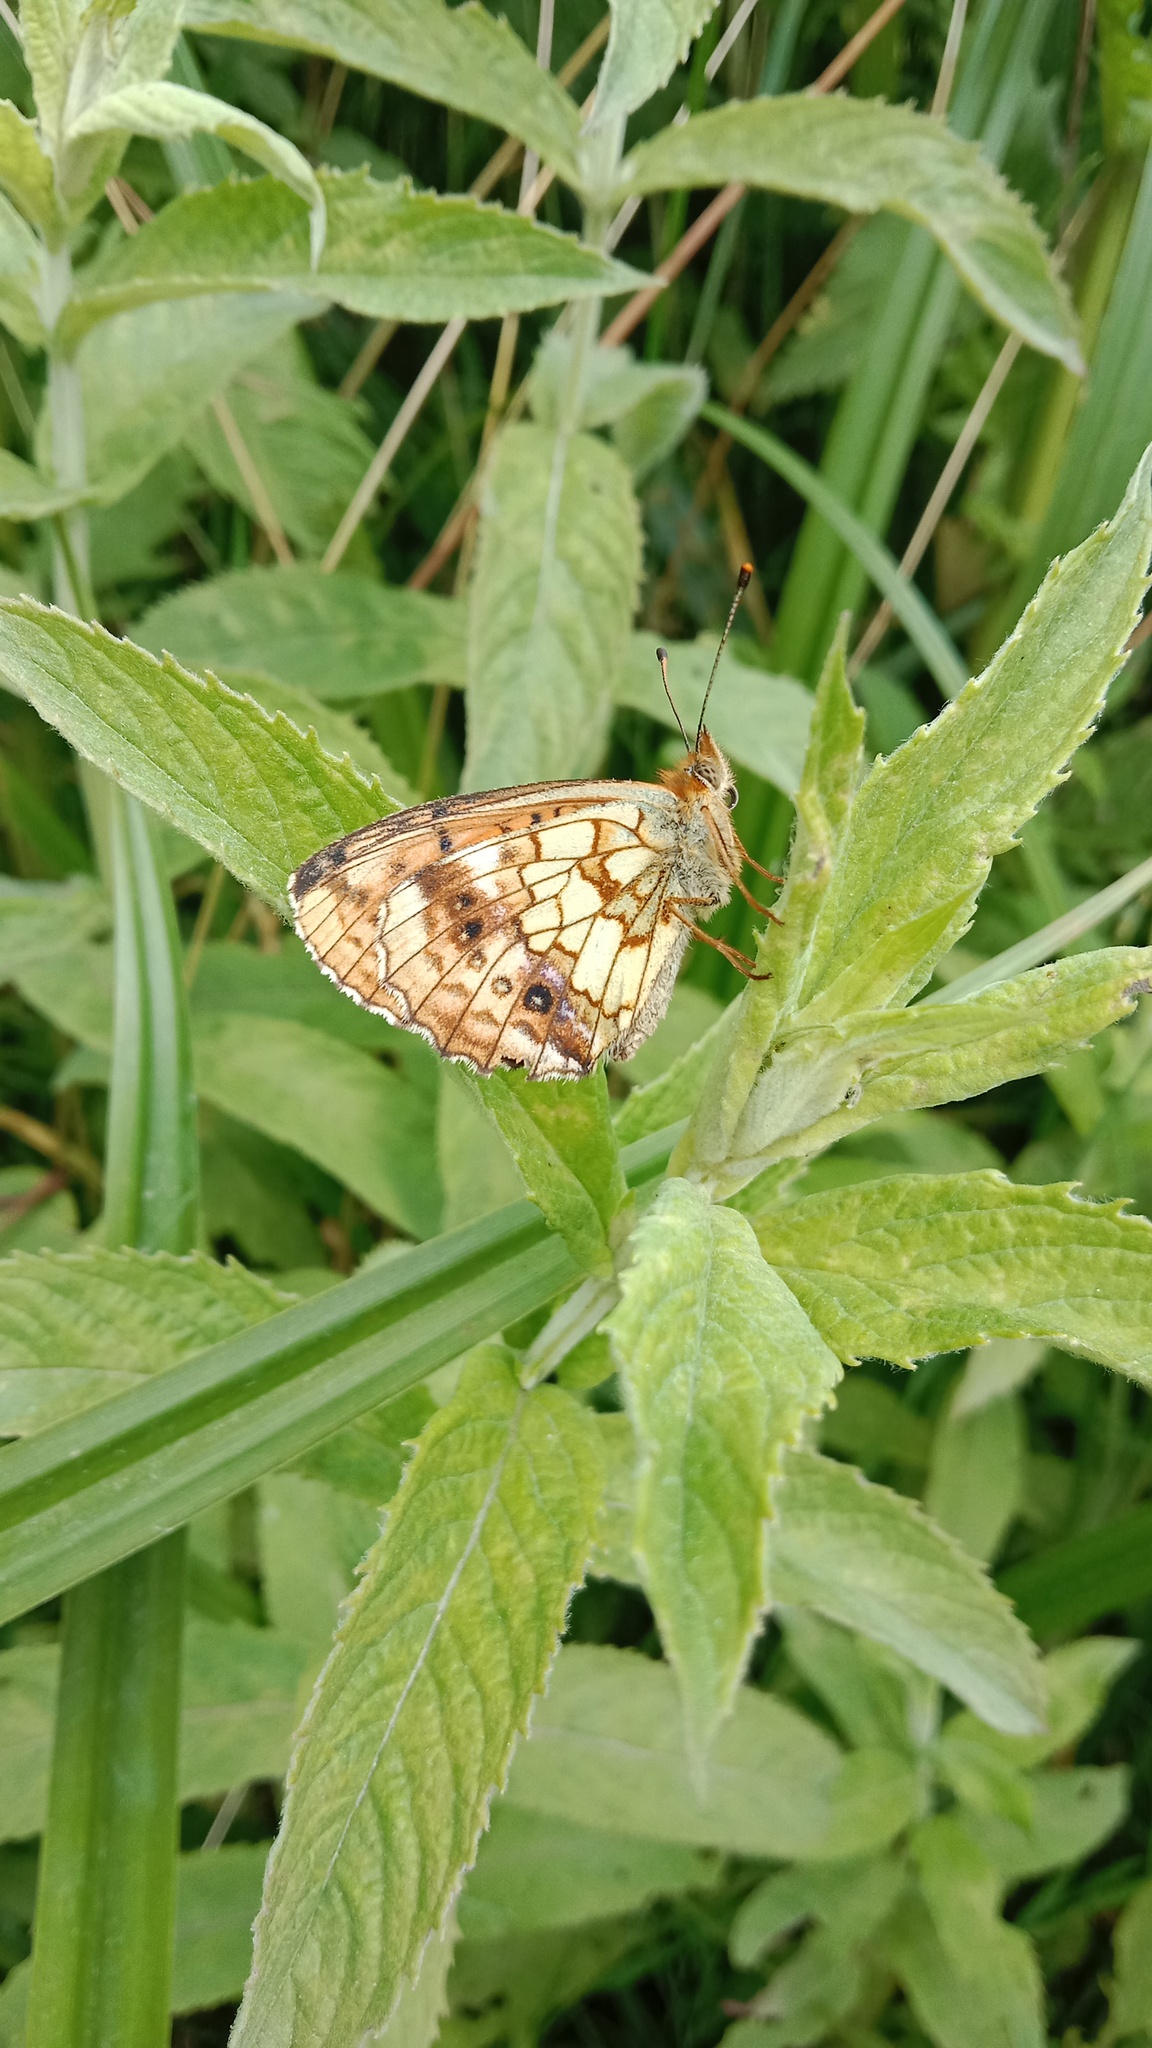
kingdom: Animalia
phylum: Arthropoda
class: Insecta
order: Lepidoptera
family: Nymphalidae
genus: Brenthis
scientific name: Brenthis ino
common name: Lesser marbled fritillary
